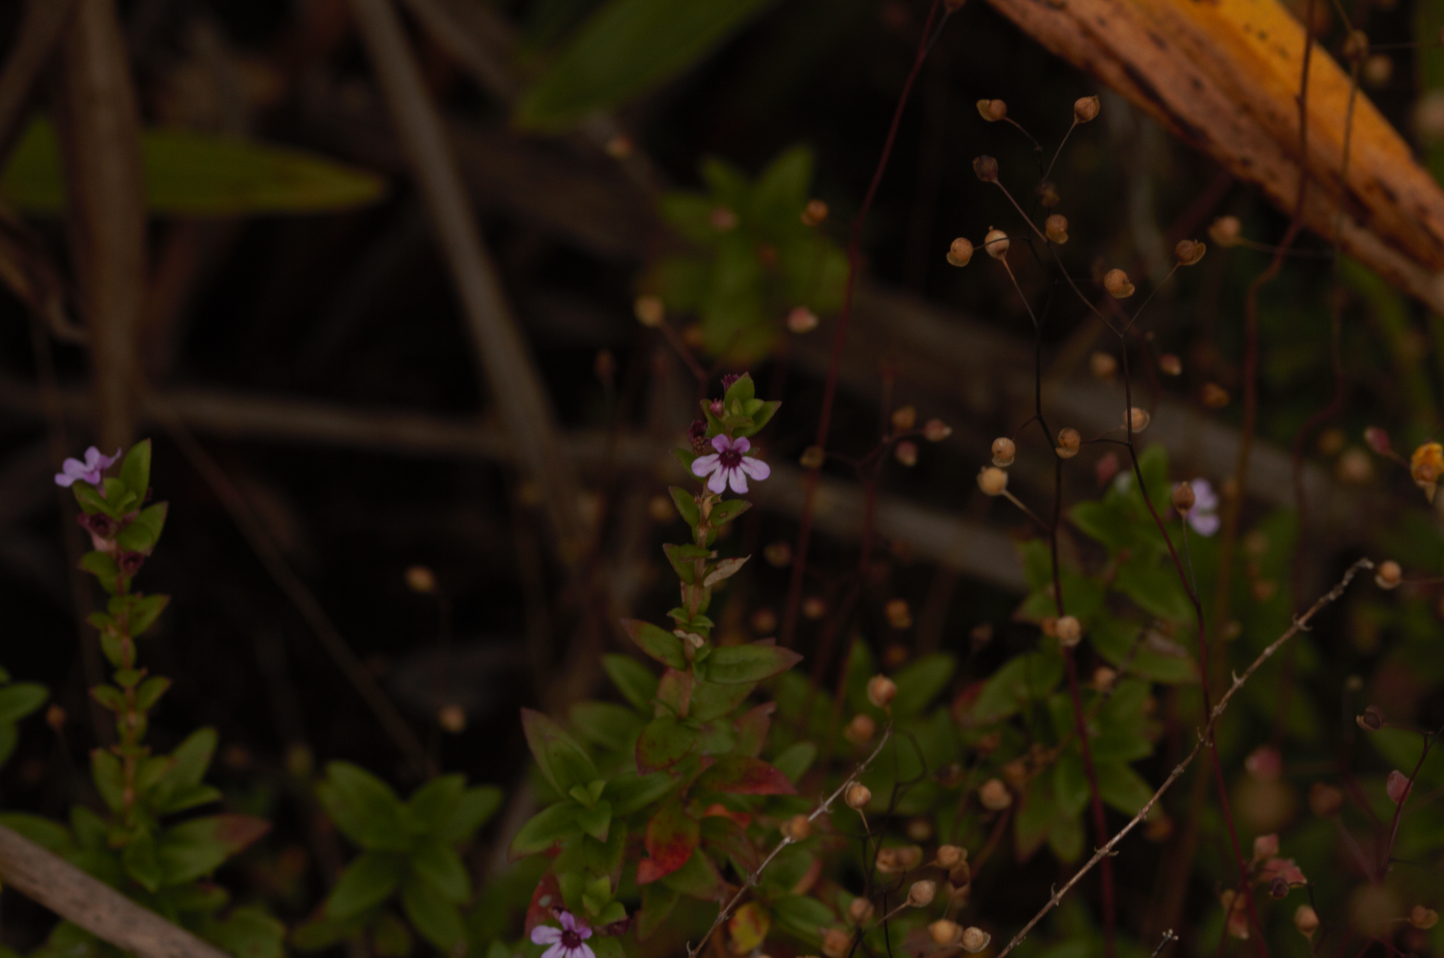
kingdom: Plantae
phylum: Tracheophyta
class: Magnoliopsida
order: Myrtales
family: Lythraceae
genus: Cuphea
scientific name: Cuphea blackii
